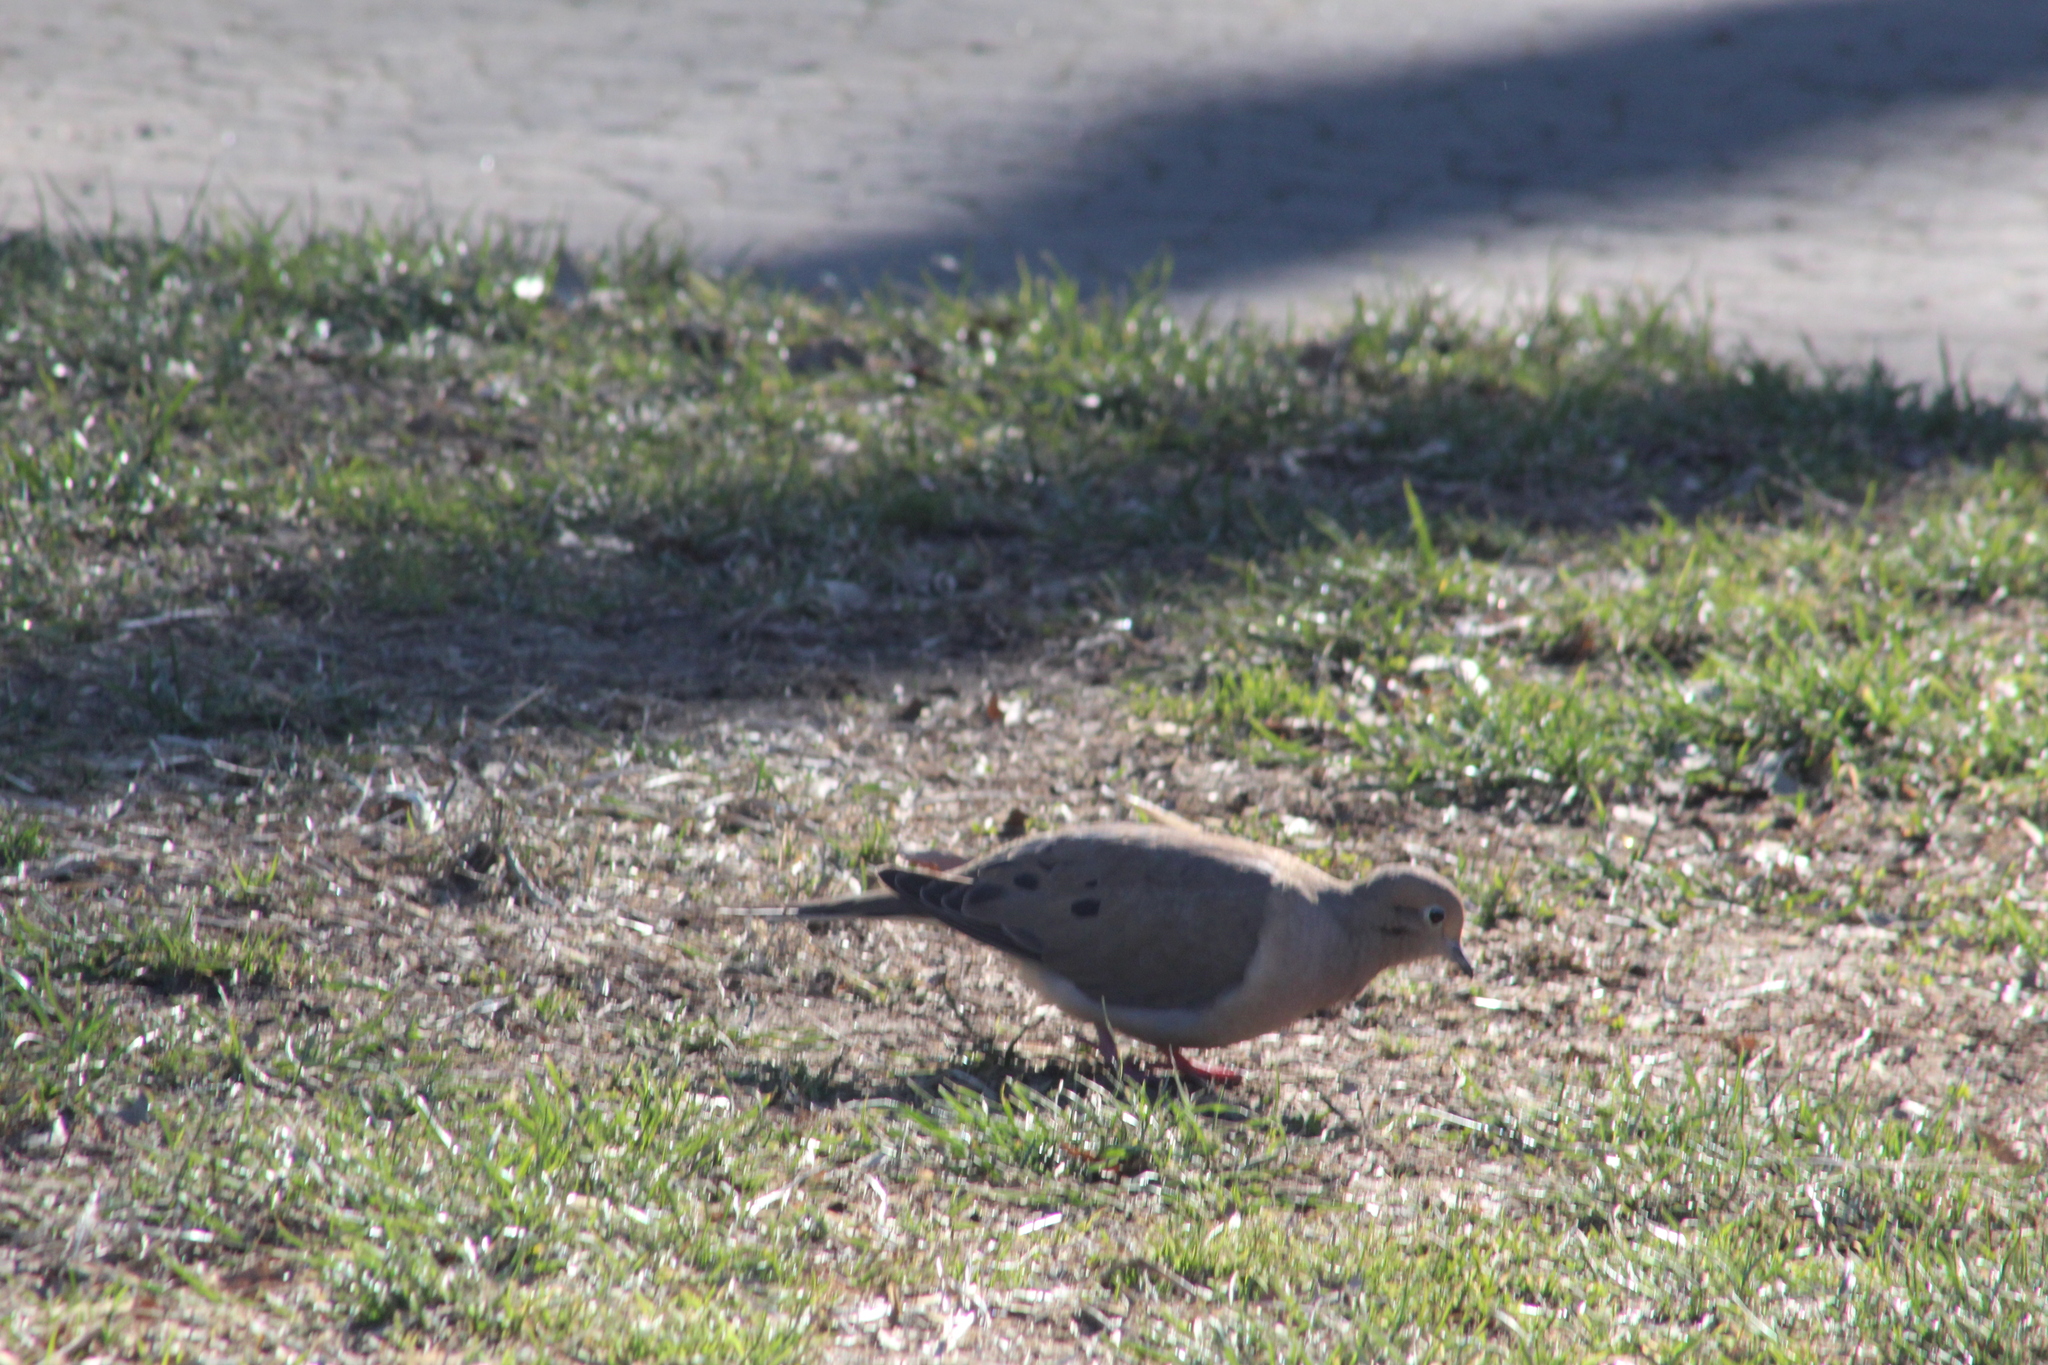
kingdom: Animalia
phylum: Chordata
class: Aves
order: Columbiformes
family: Columbidae
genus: Zenaida
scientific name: Zenaida macroura
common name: Mourning dove
